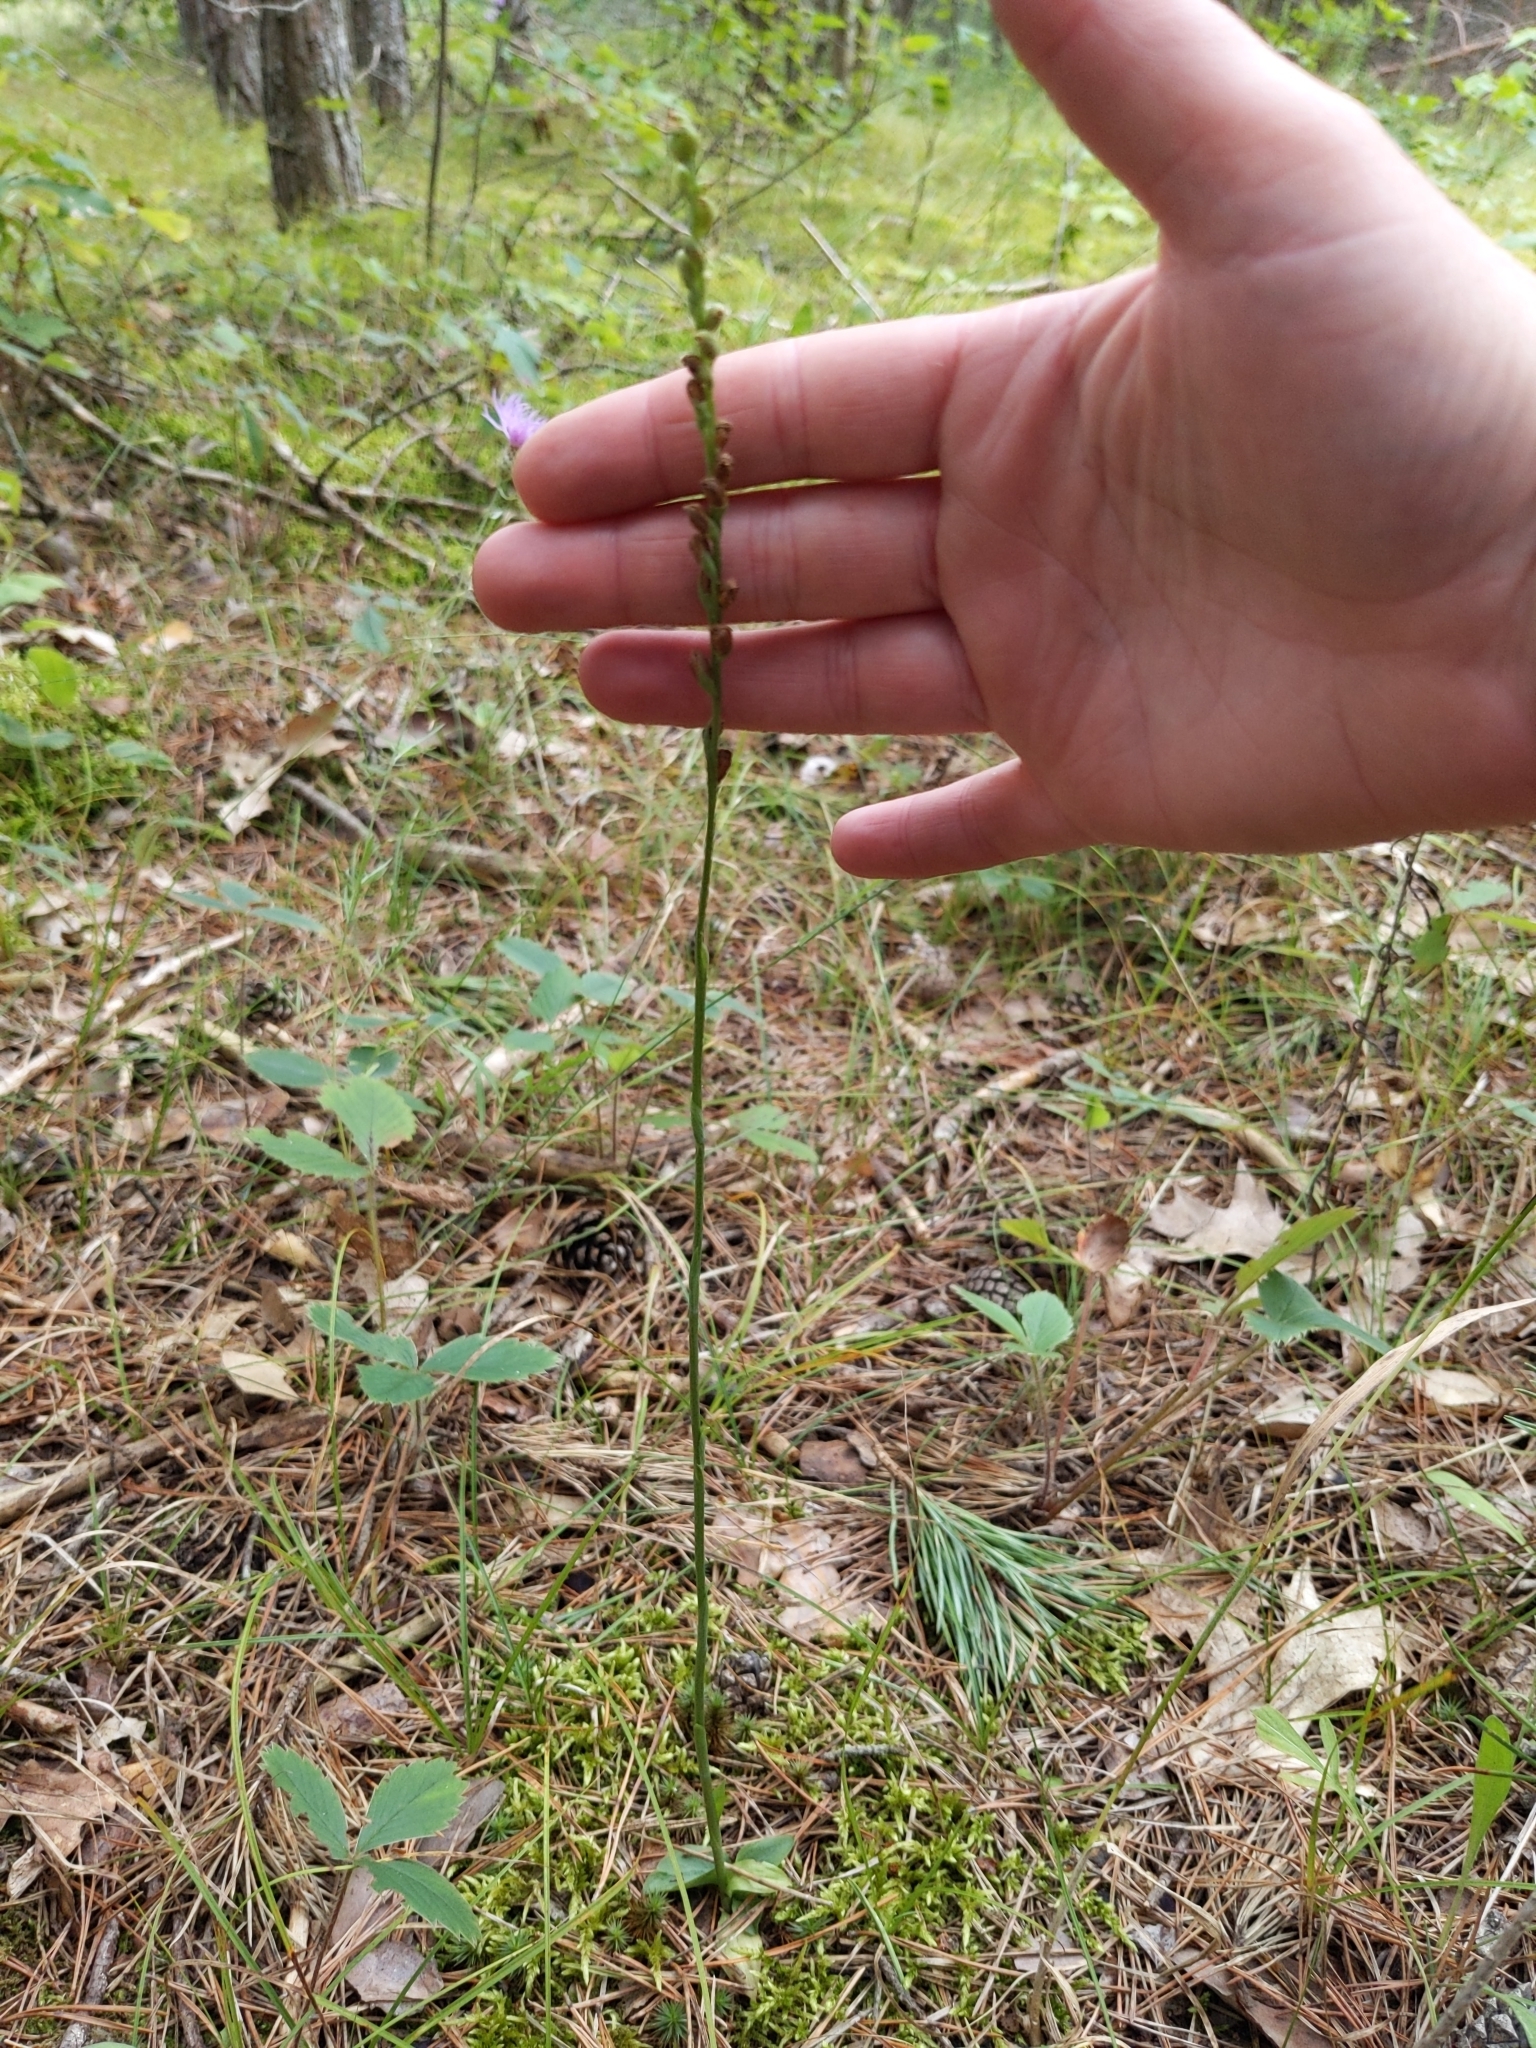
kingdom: Plantae
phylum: Tracheophyta
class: Liliopsida
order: Asparagales
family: Orchidaceae
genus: Spiranthes
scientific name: Spiranthes lacera
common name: Northern slender ladies'-tresses
